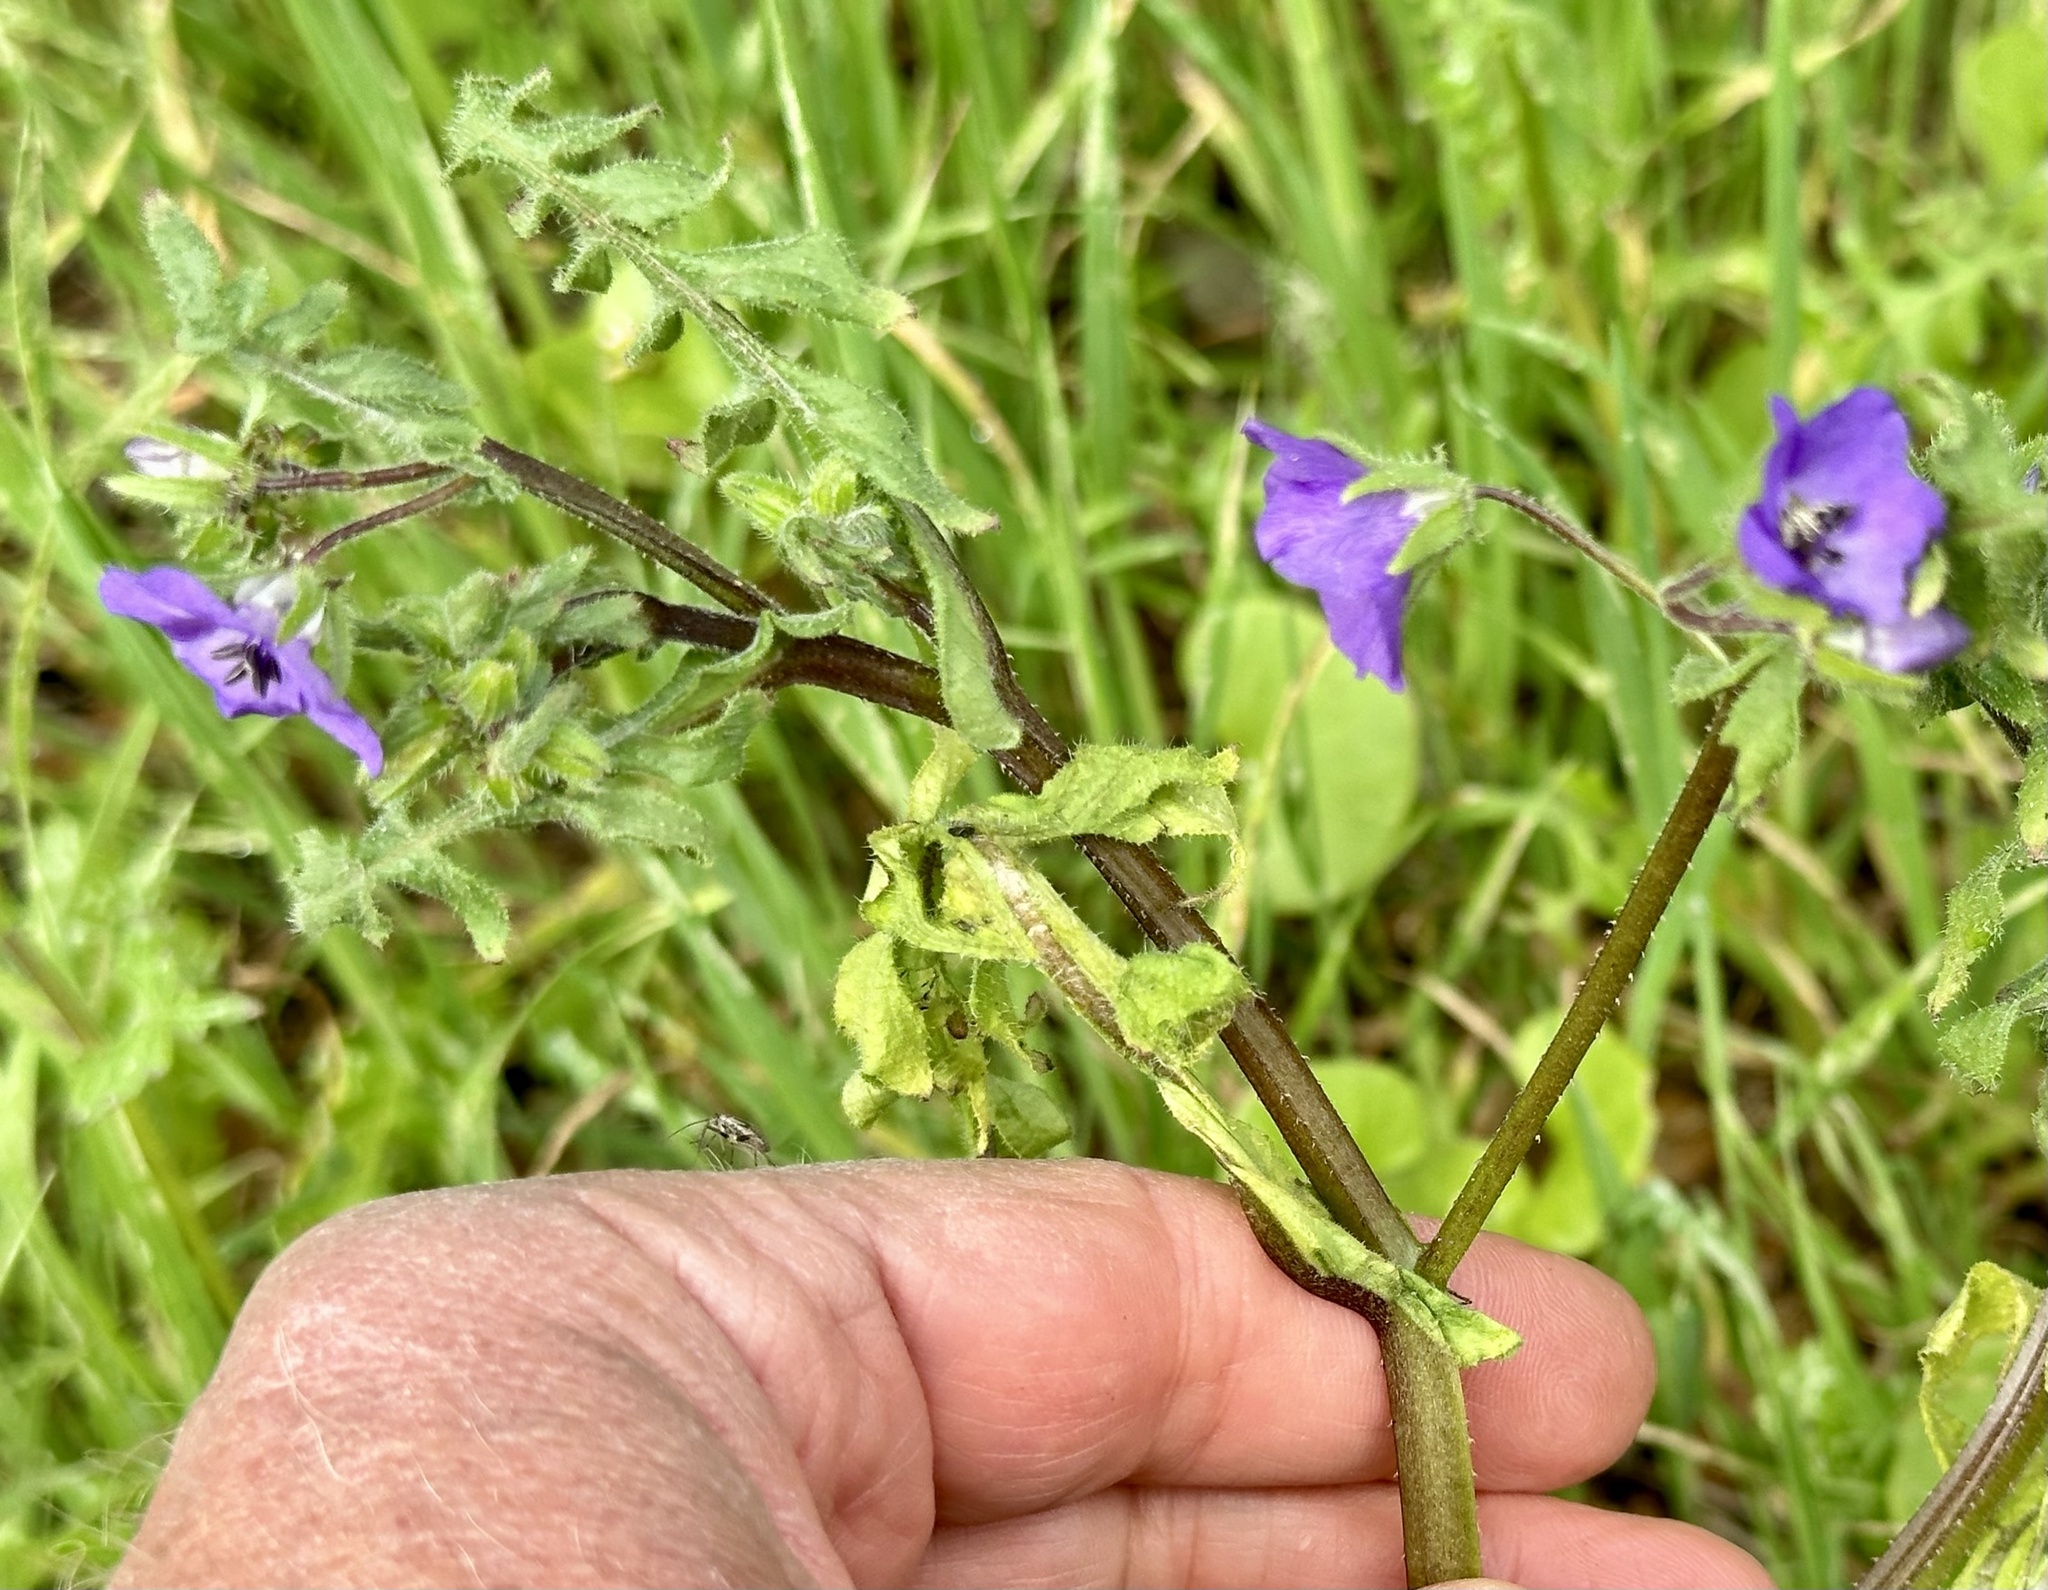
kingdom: Plantae
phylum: Tracheophyta
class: Magnoliopsida
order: Boraginales
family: Hydrophyllaceae
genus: Pholistoma
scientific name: Pholistoma auritum
